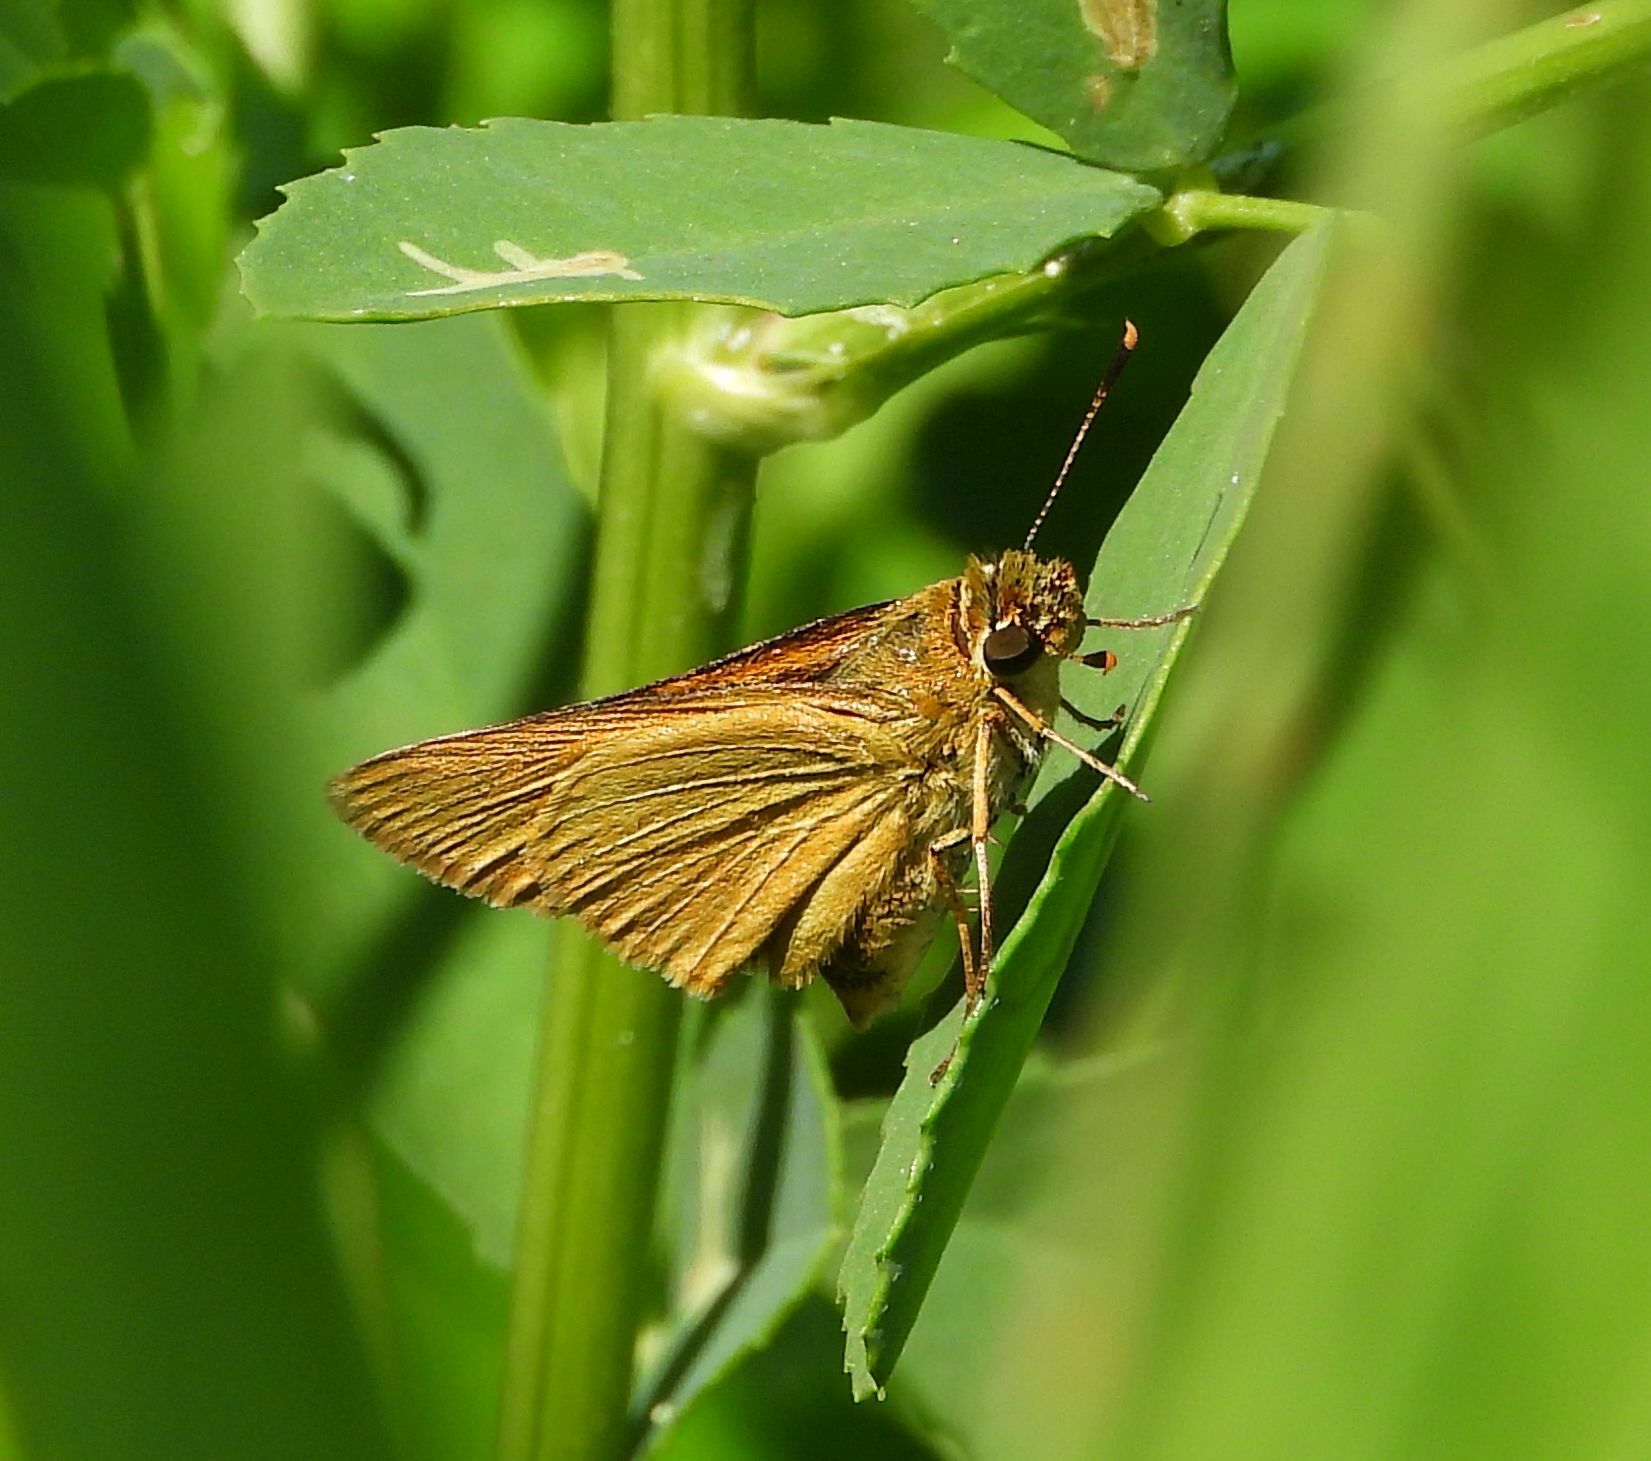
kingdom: Animalia
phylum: Arthropoda
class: Insecta
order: Lepidoptera
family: Hesperiidae
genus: Atrytone
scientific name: Atrytone delaware
